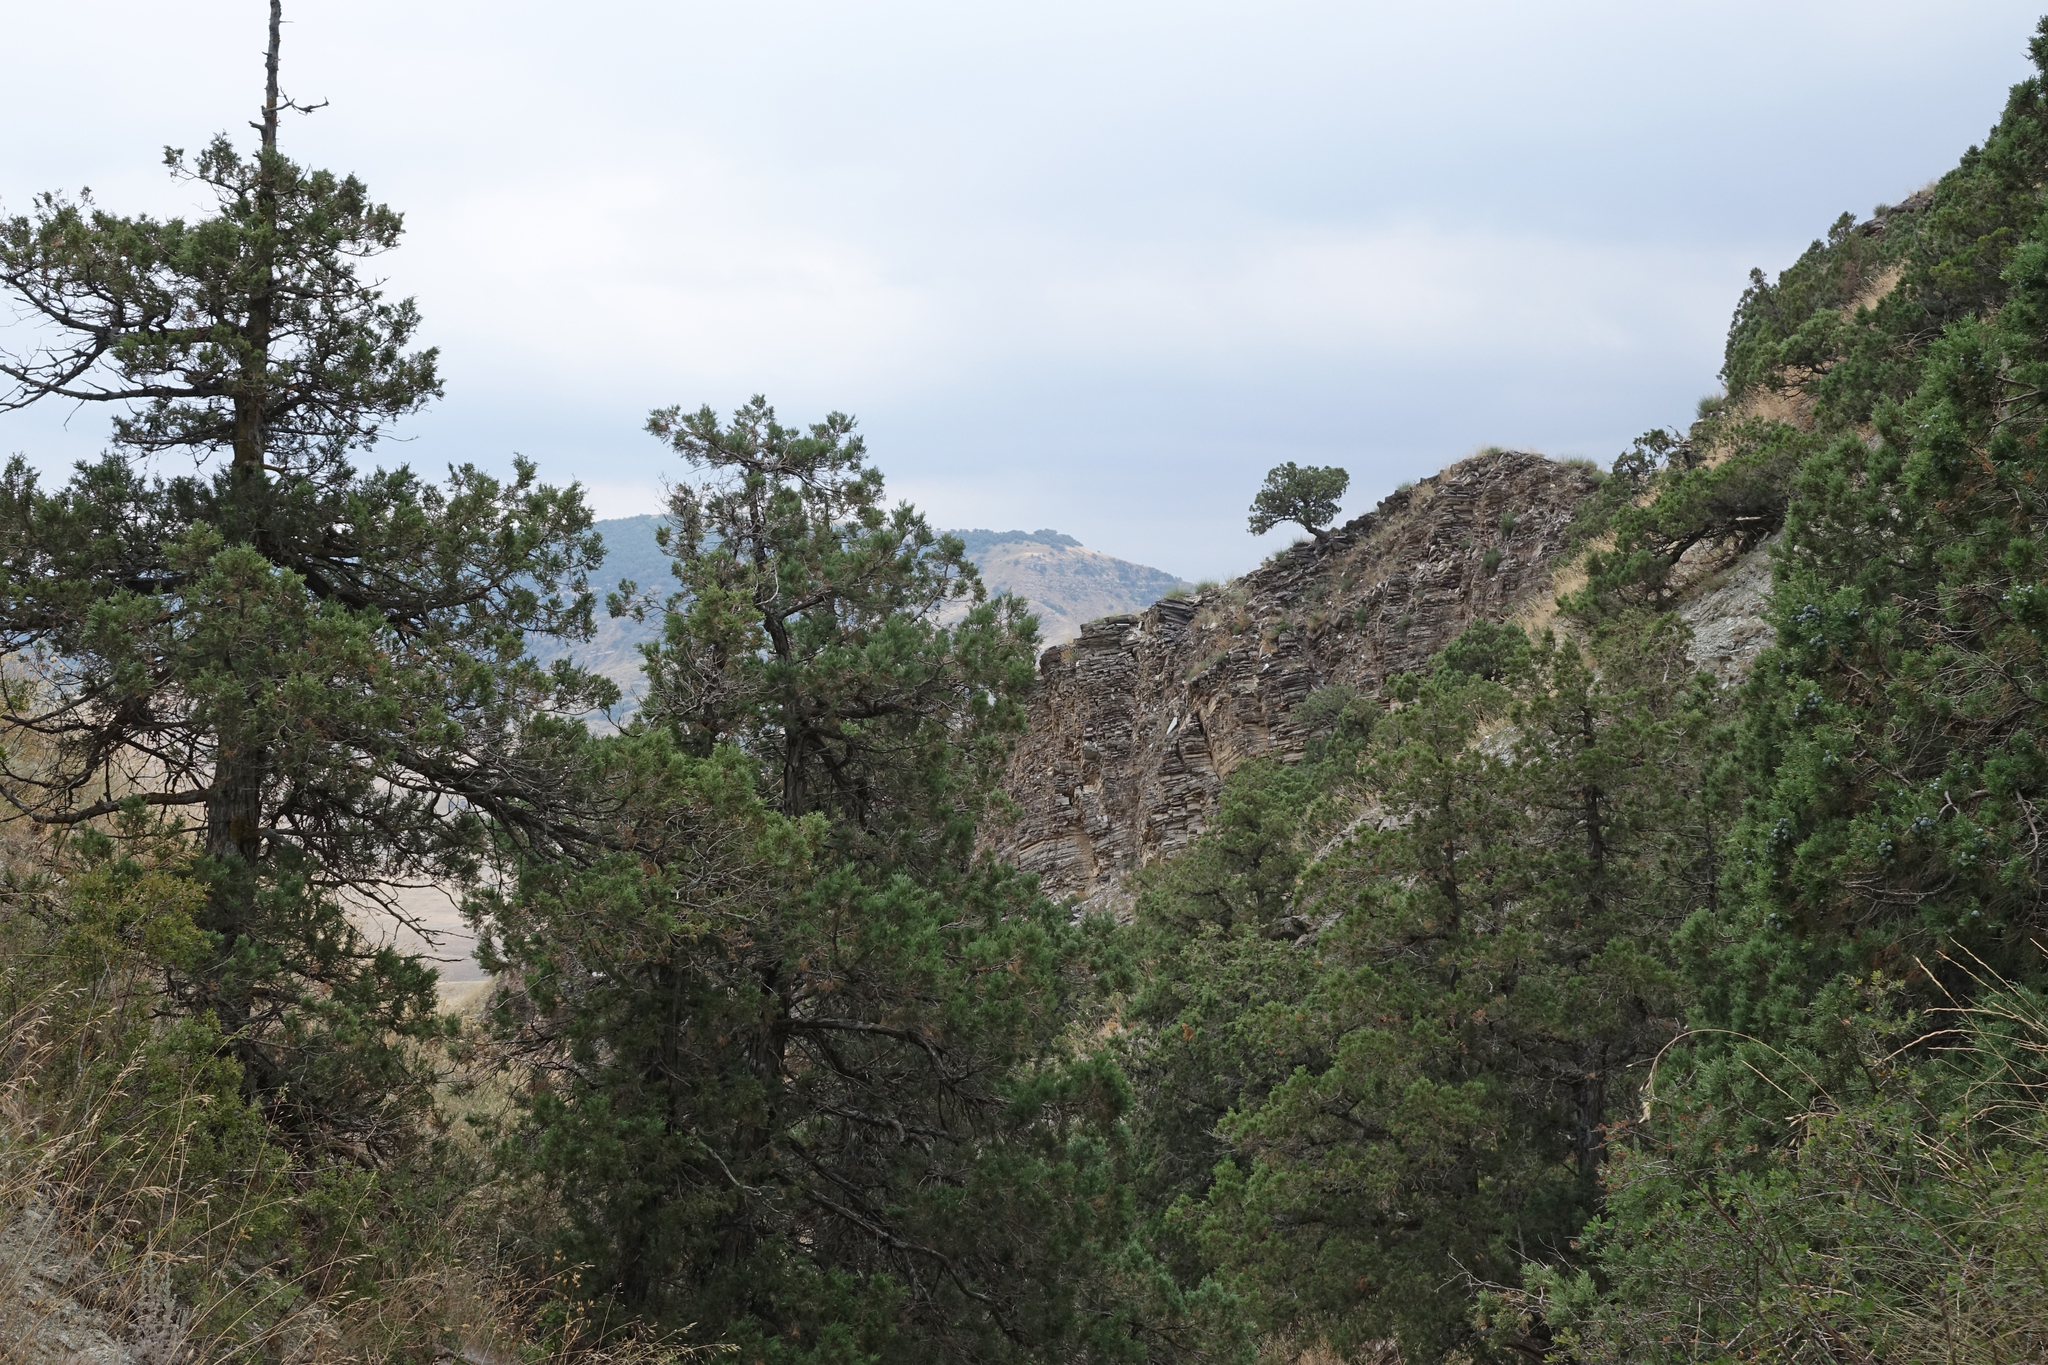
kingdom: Plantae
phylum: Tracheophyta
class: Pinopsida
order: Pinales
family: Cupressaceae
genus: Juniperus
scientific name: Juniperus excelsa
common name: Crimean juniper
